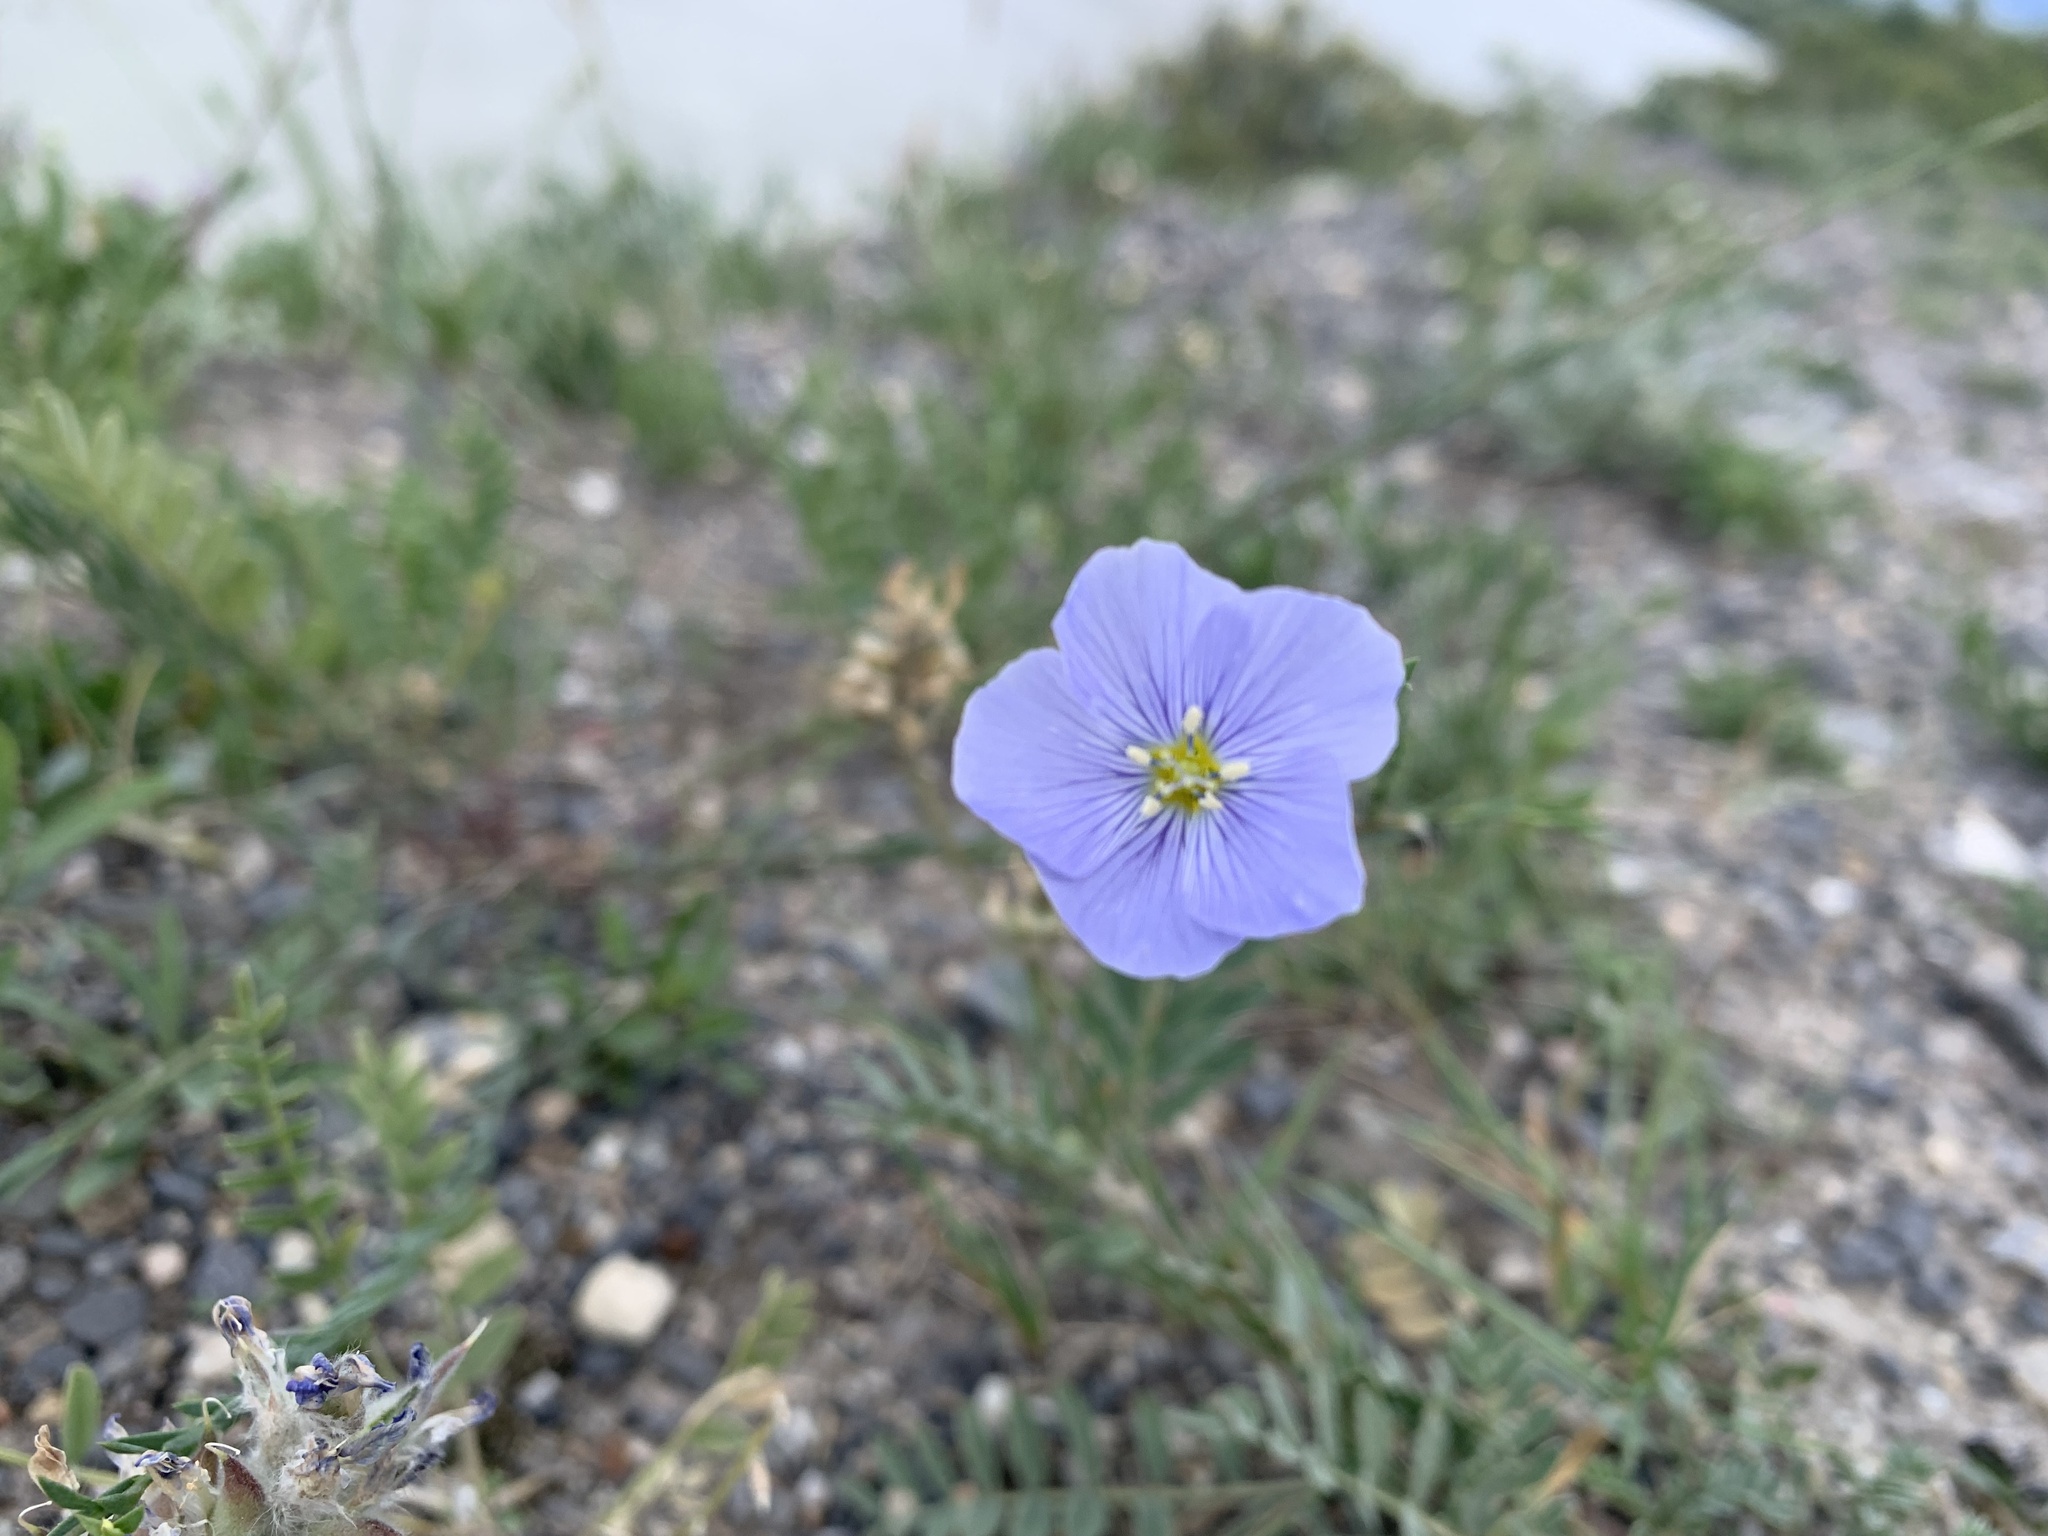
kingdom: Plantae
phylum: Tracheophyta
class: Magnoliopsida
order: Malpighiales
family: Linaceae
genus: Linum
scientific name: Linum lewisii
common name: Prairie flax
